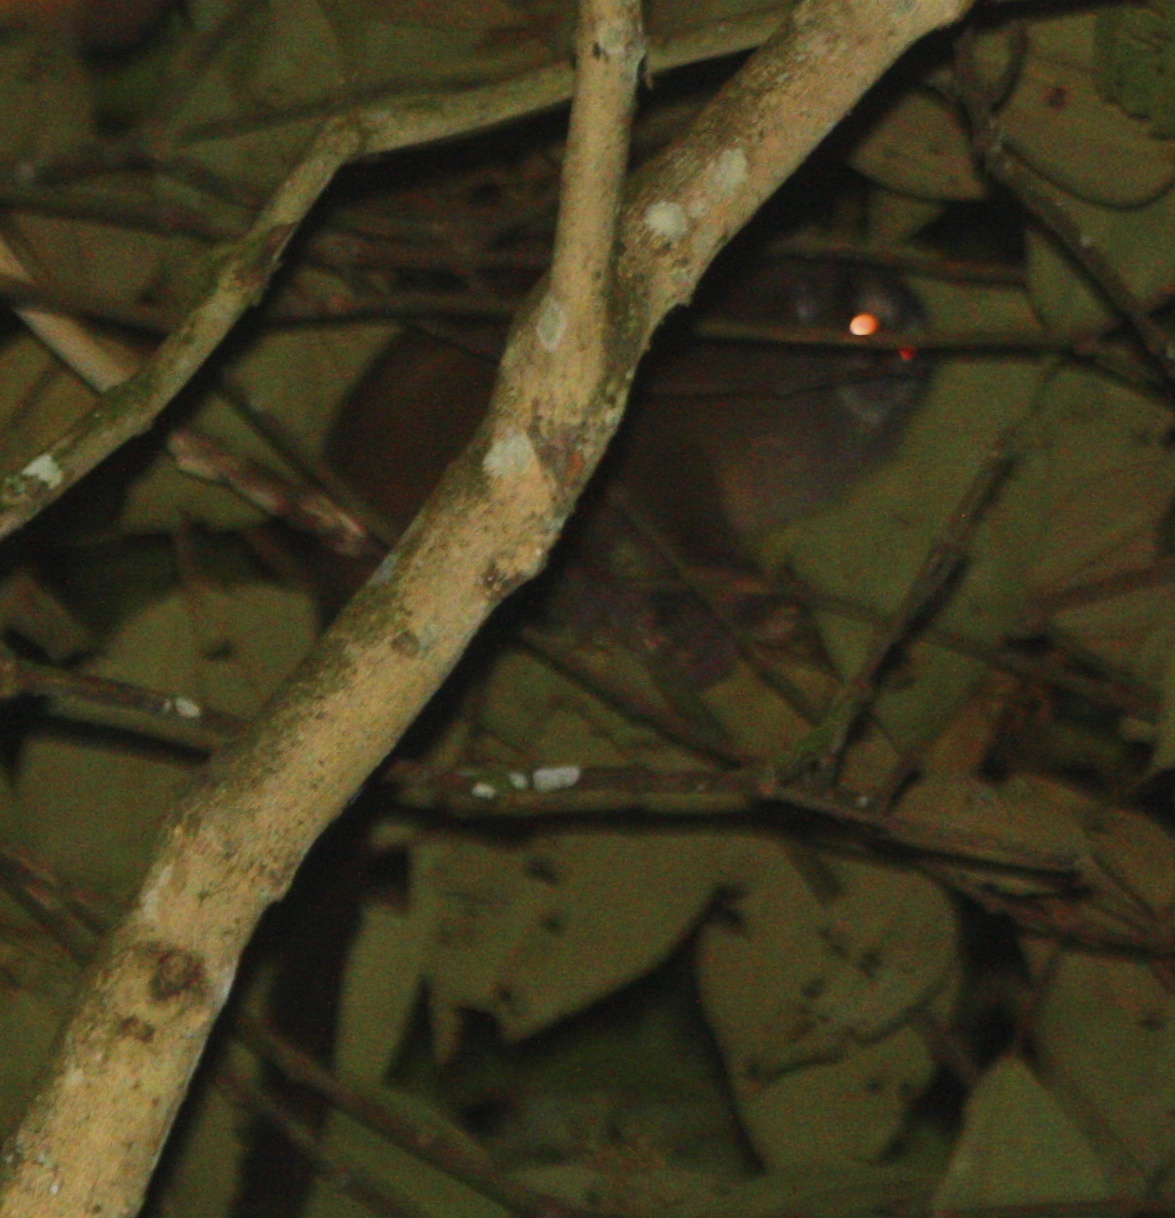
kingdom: Animalia
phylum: Chordata
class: Mammalia
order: Primates
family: Aotidae
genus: Aotus
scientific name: Aotus lemurinus
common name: Gray-bellied night monkey
